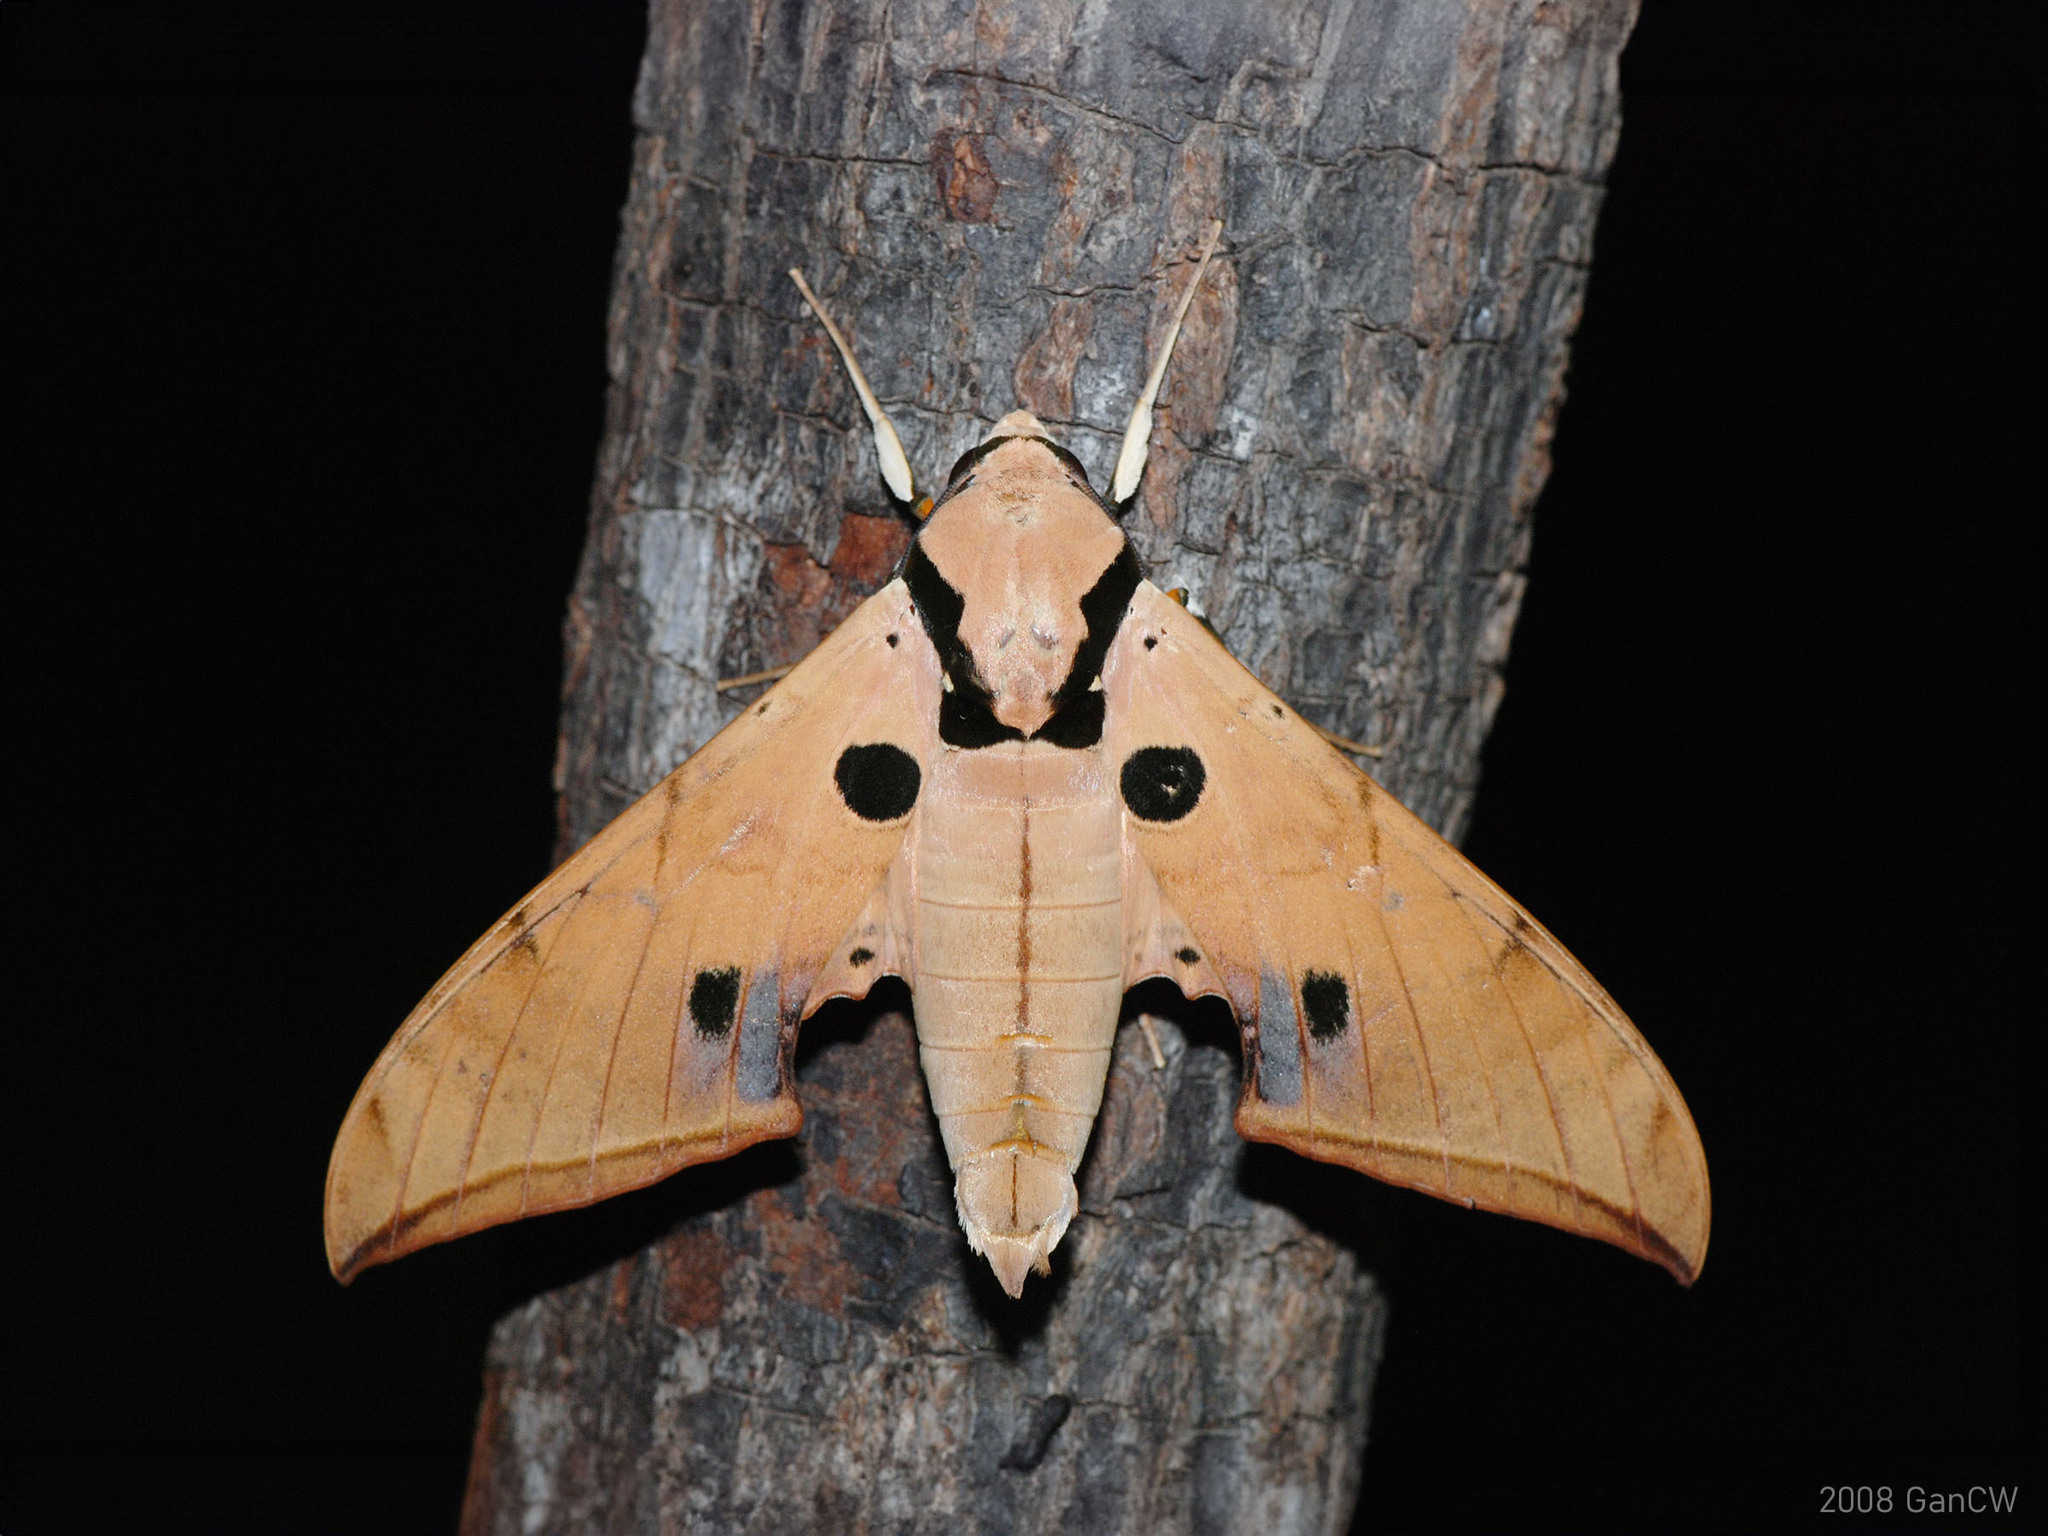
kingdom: Animalia
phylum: Arthropoda
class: Insecta
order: Lepidoptera
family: Sphingidae
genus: Ambulyx
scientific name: Ambulyx obliterata
